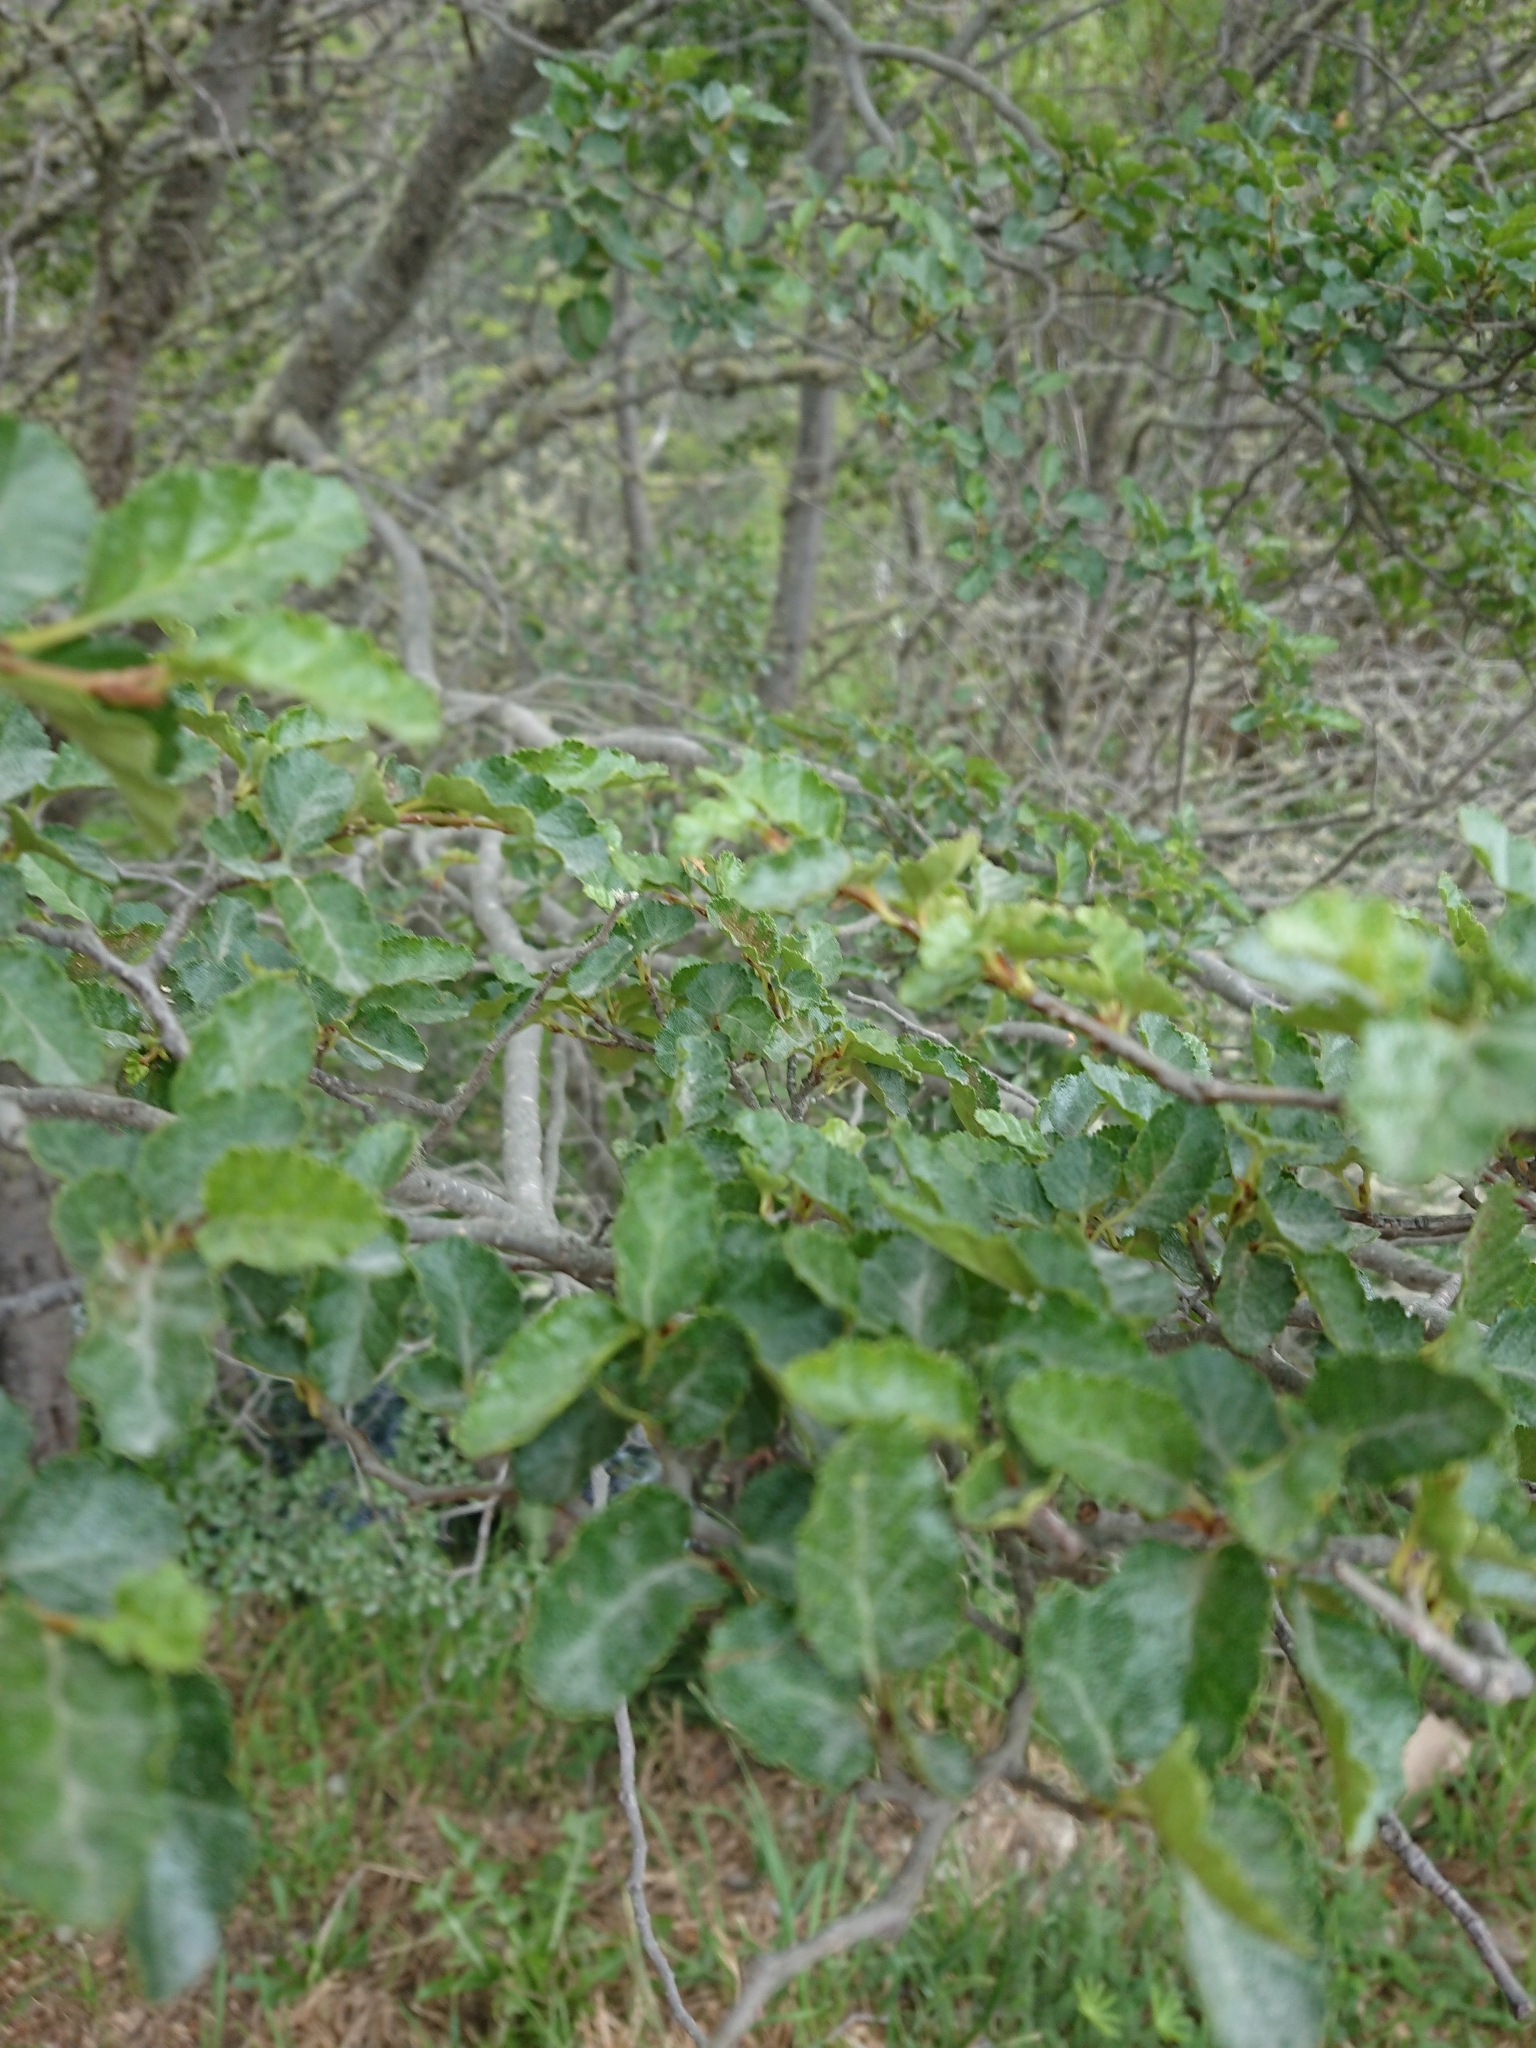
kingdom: Plantae
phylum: Tracheophyta
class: Magnoliopsida
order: Fagales
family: Nothofagaceae
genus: Nothofagus
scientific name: Nothofagus antarctica
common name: Antarctic beech
